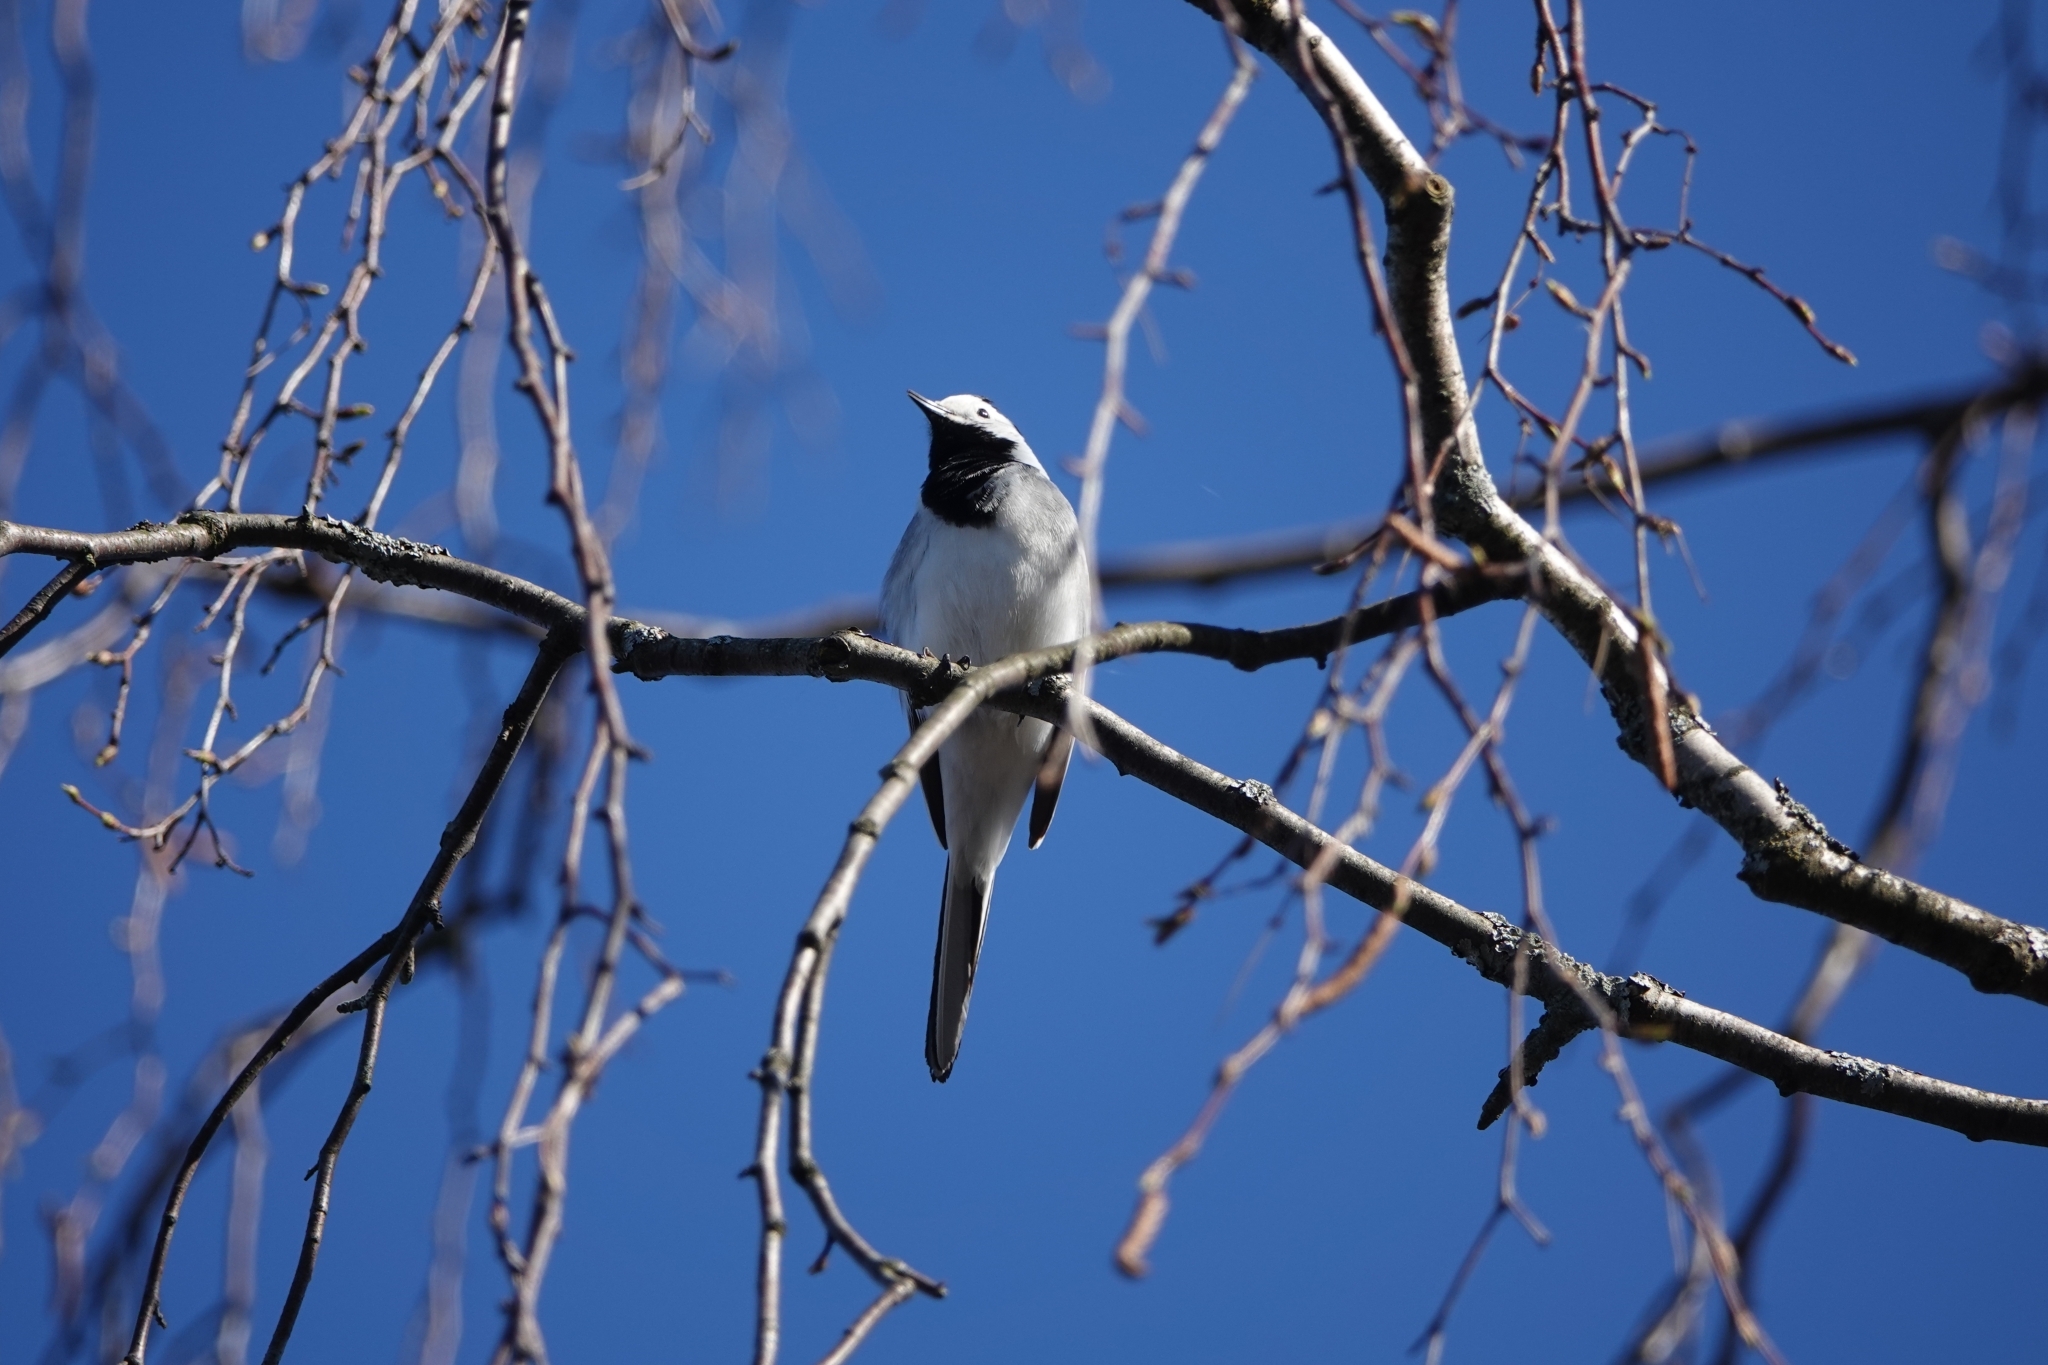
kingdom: Animalia
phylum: Chordata
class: Aves
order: Passeriformes
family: Motacillidae
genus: Motacilla
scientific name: Motacilla alba
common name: White wagtail
